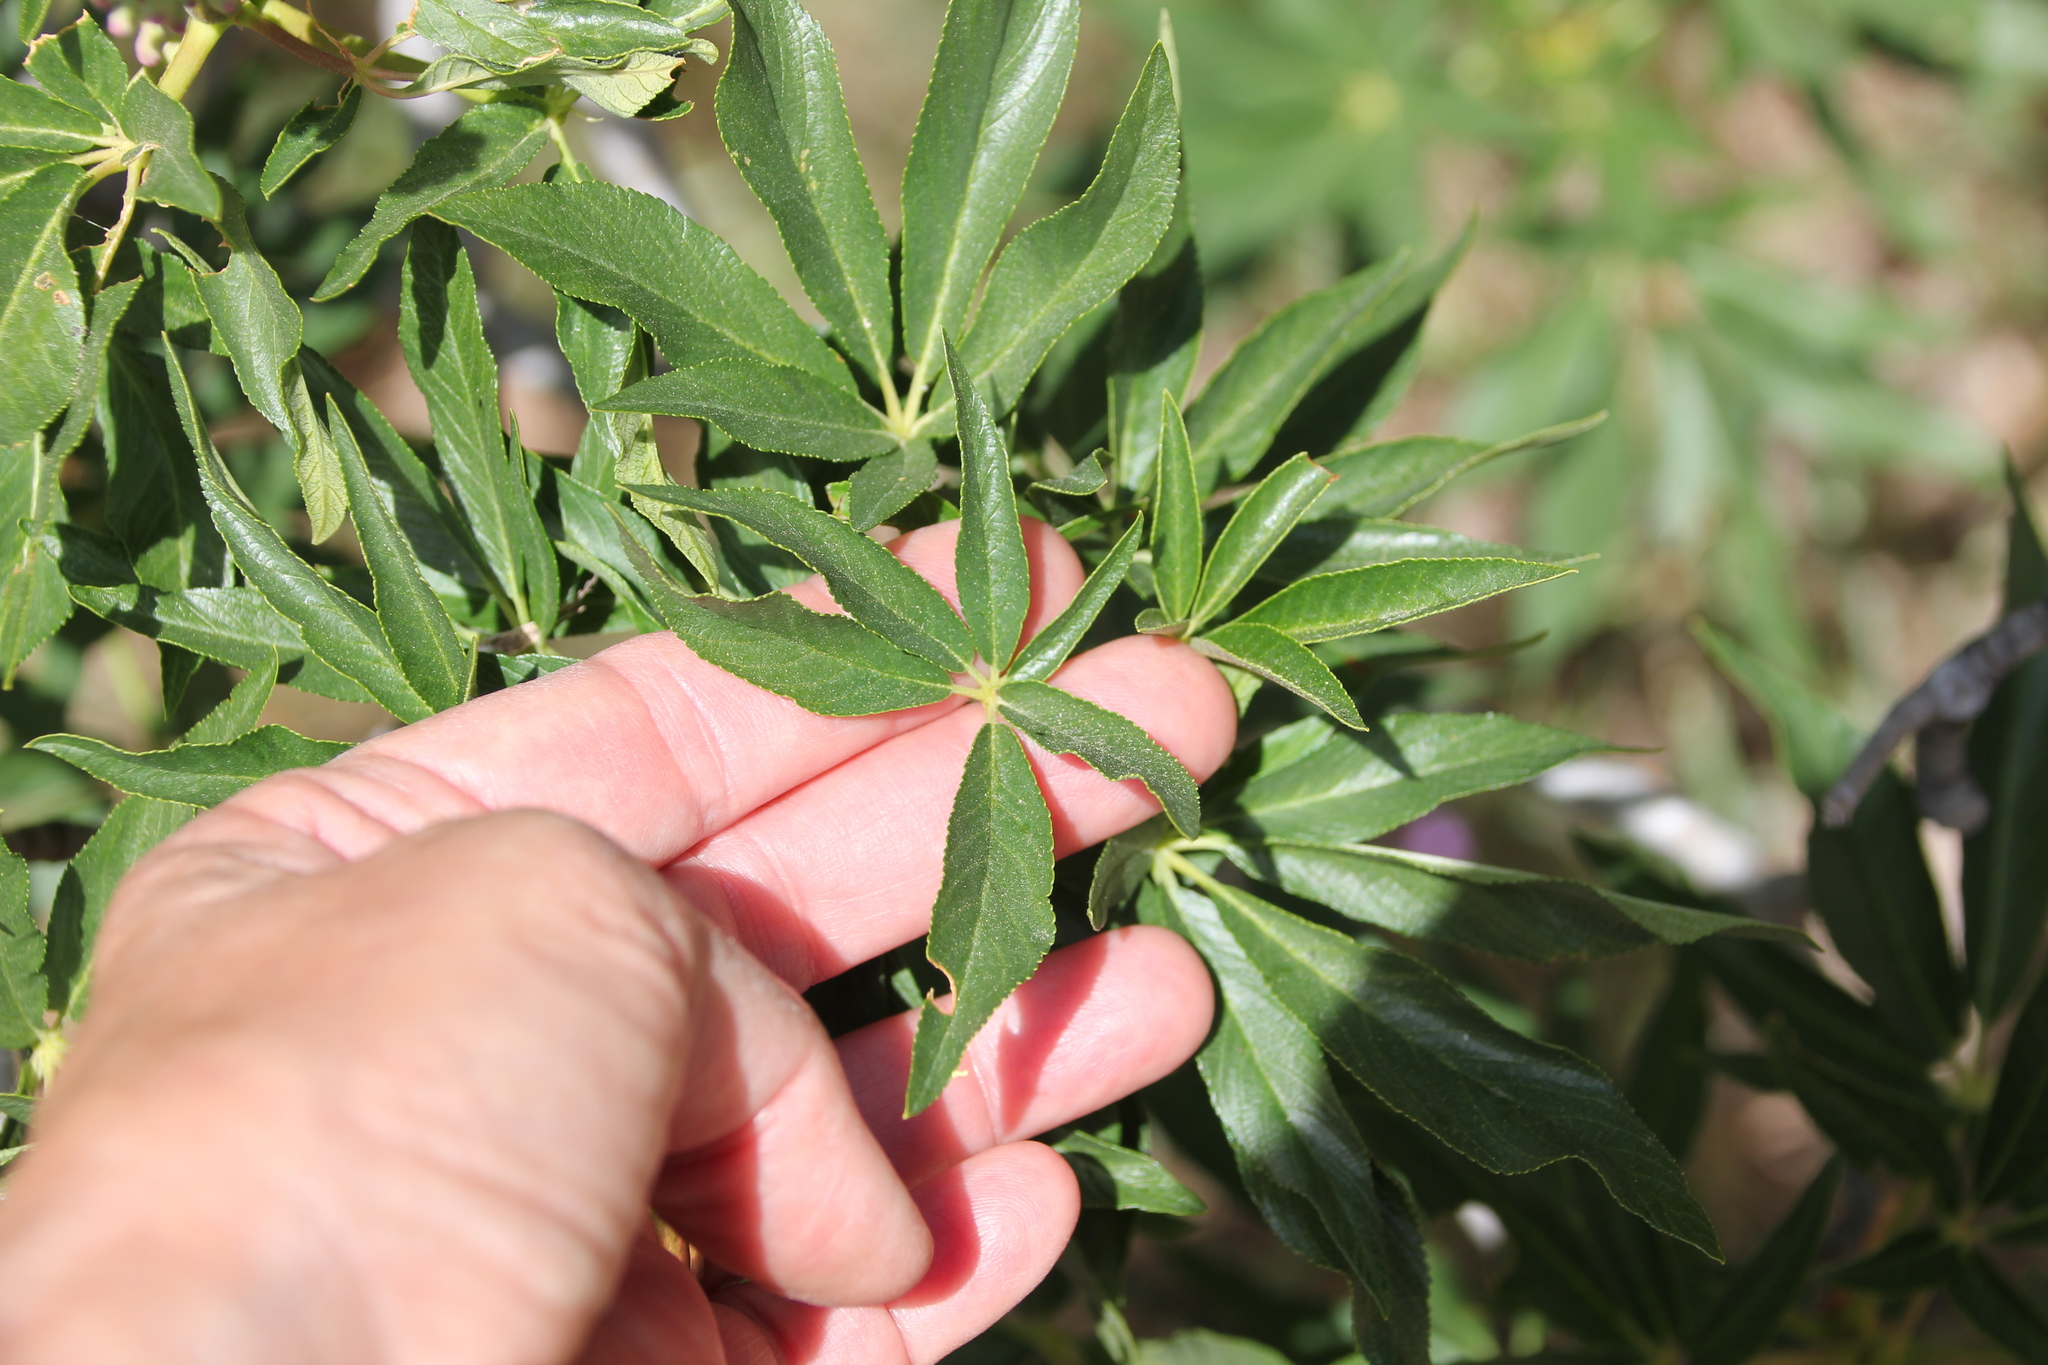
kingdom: Plantae
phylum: Tracheophyta
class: Magnoliopsida
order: Sapindales
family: Sapindaceae
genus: Aesculus
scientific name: Aesculus californica
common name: California buckeye
